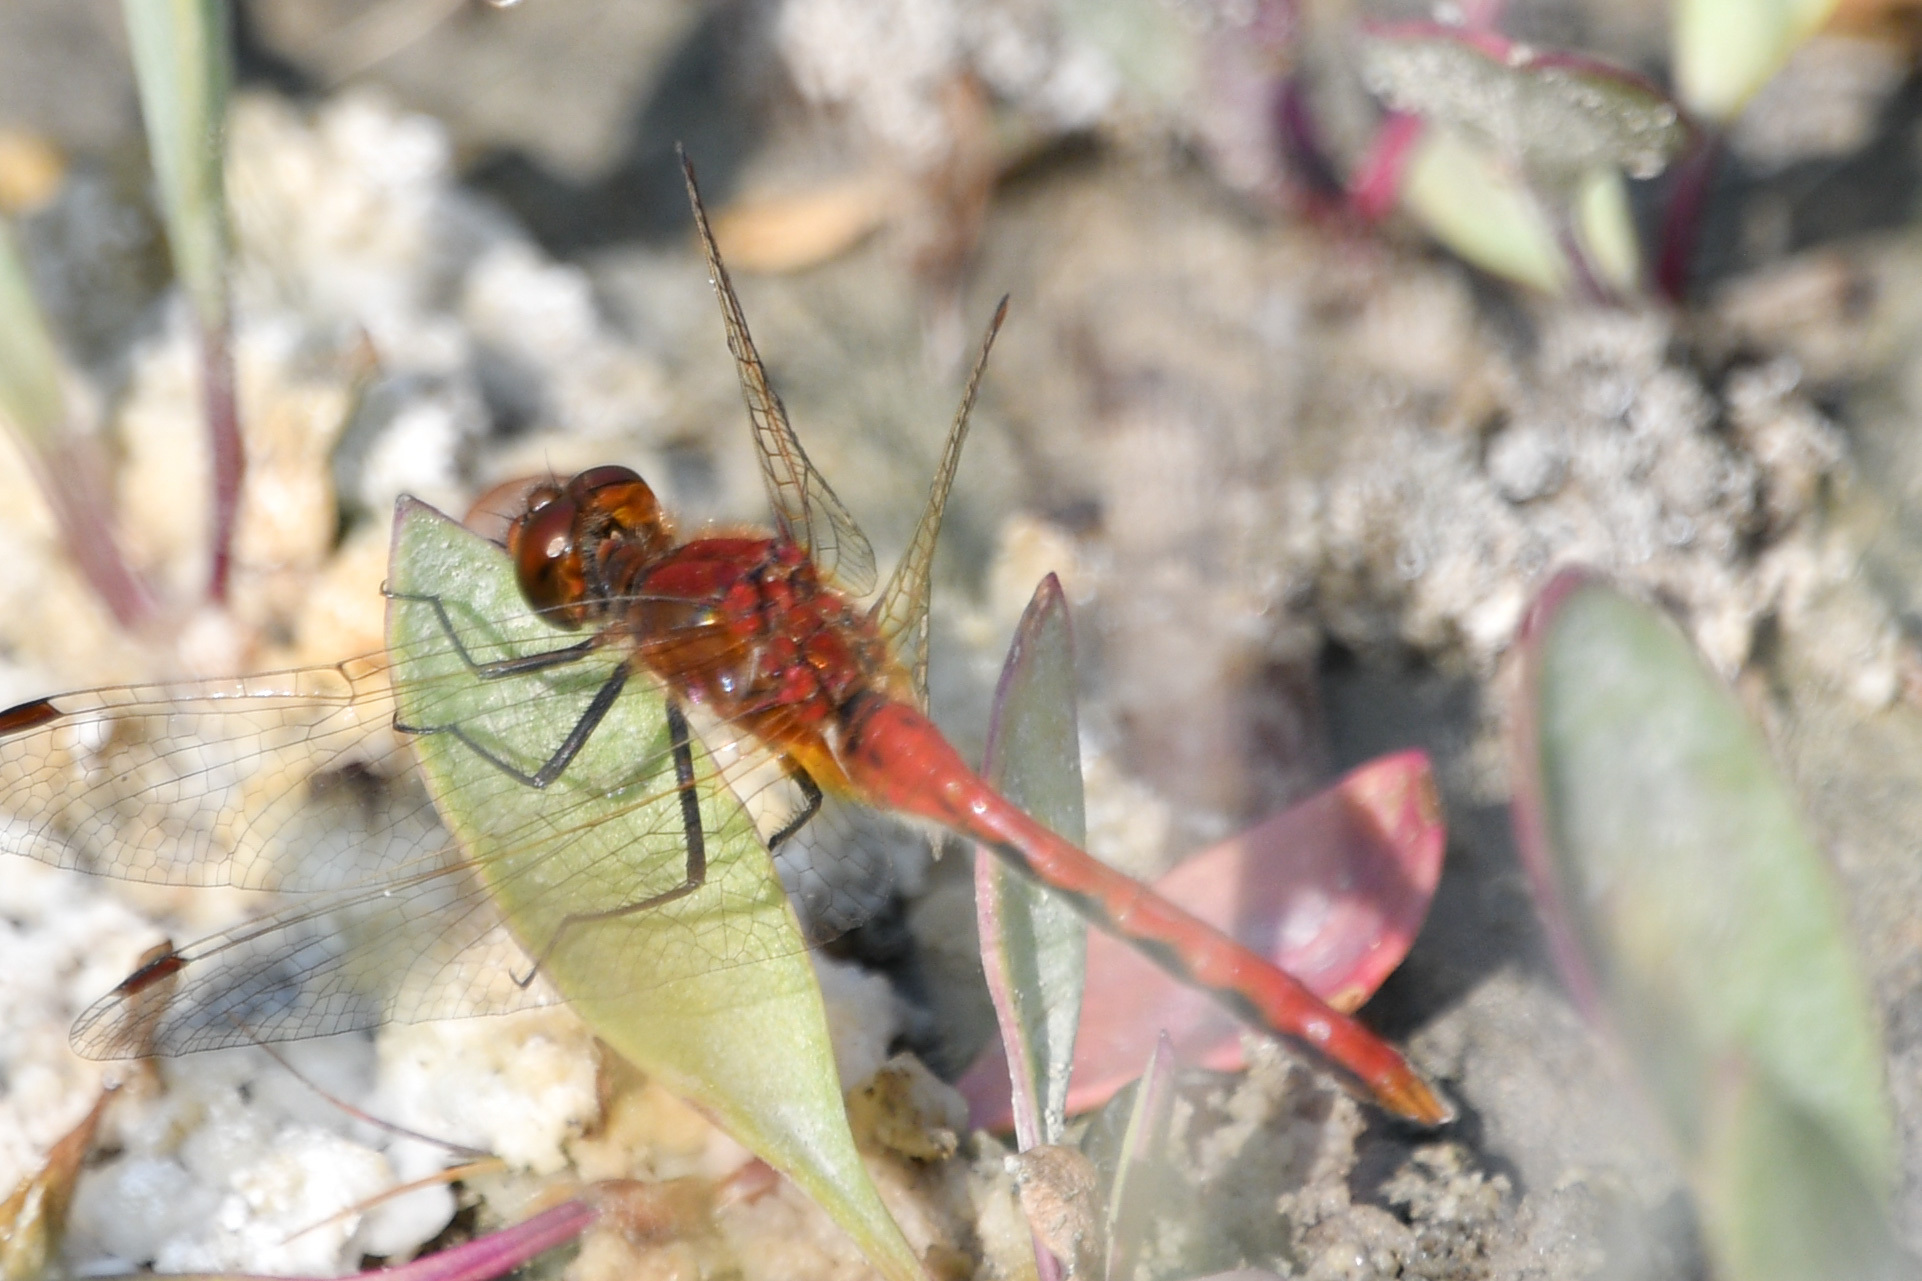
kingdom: Animalia
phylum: Arthropoda
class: Insecta
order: Odonata
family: Libellulidae
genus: Sympetrum
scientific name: Sympetrum internum
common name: Cherry-faced meadowhawk
